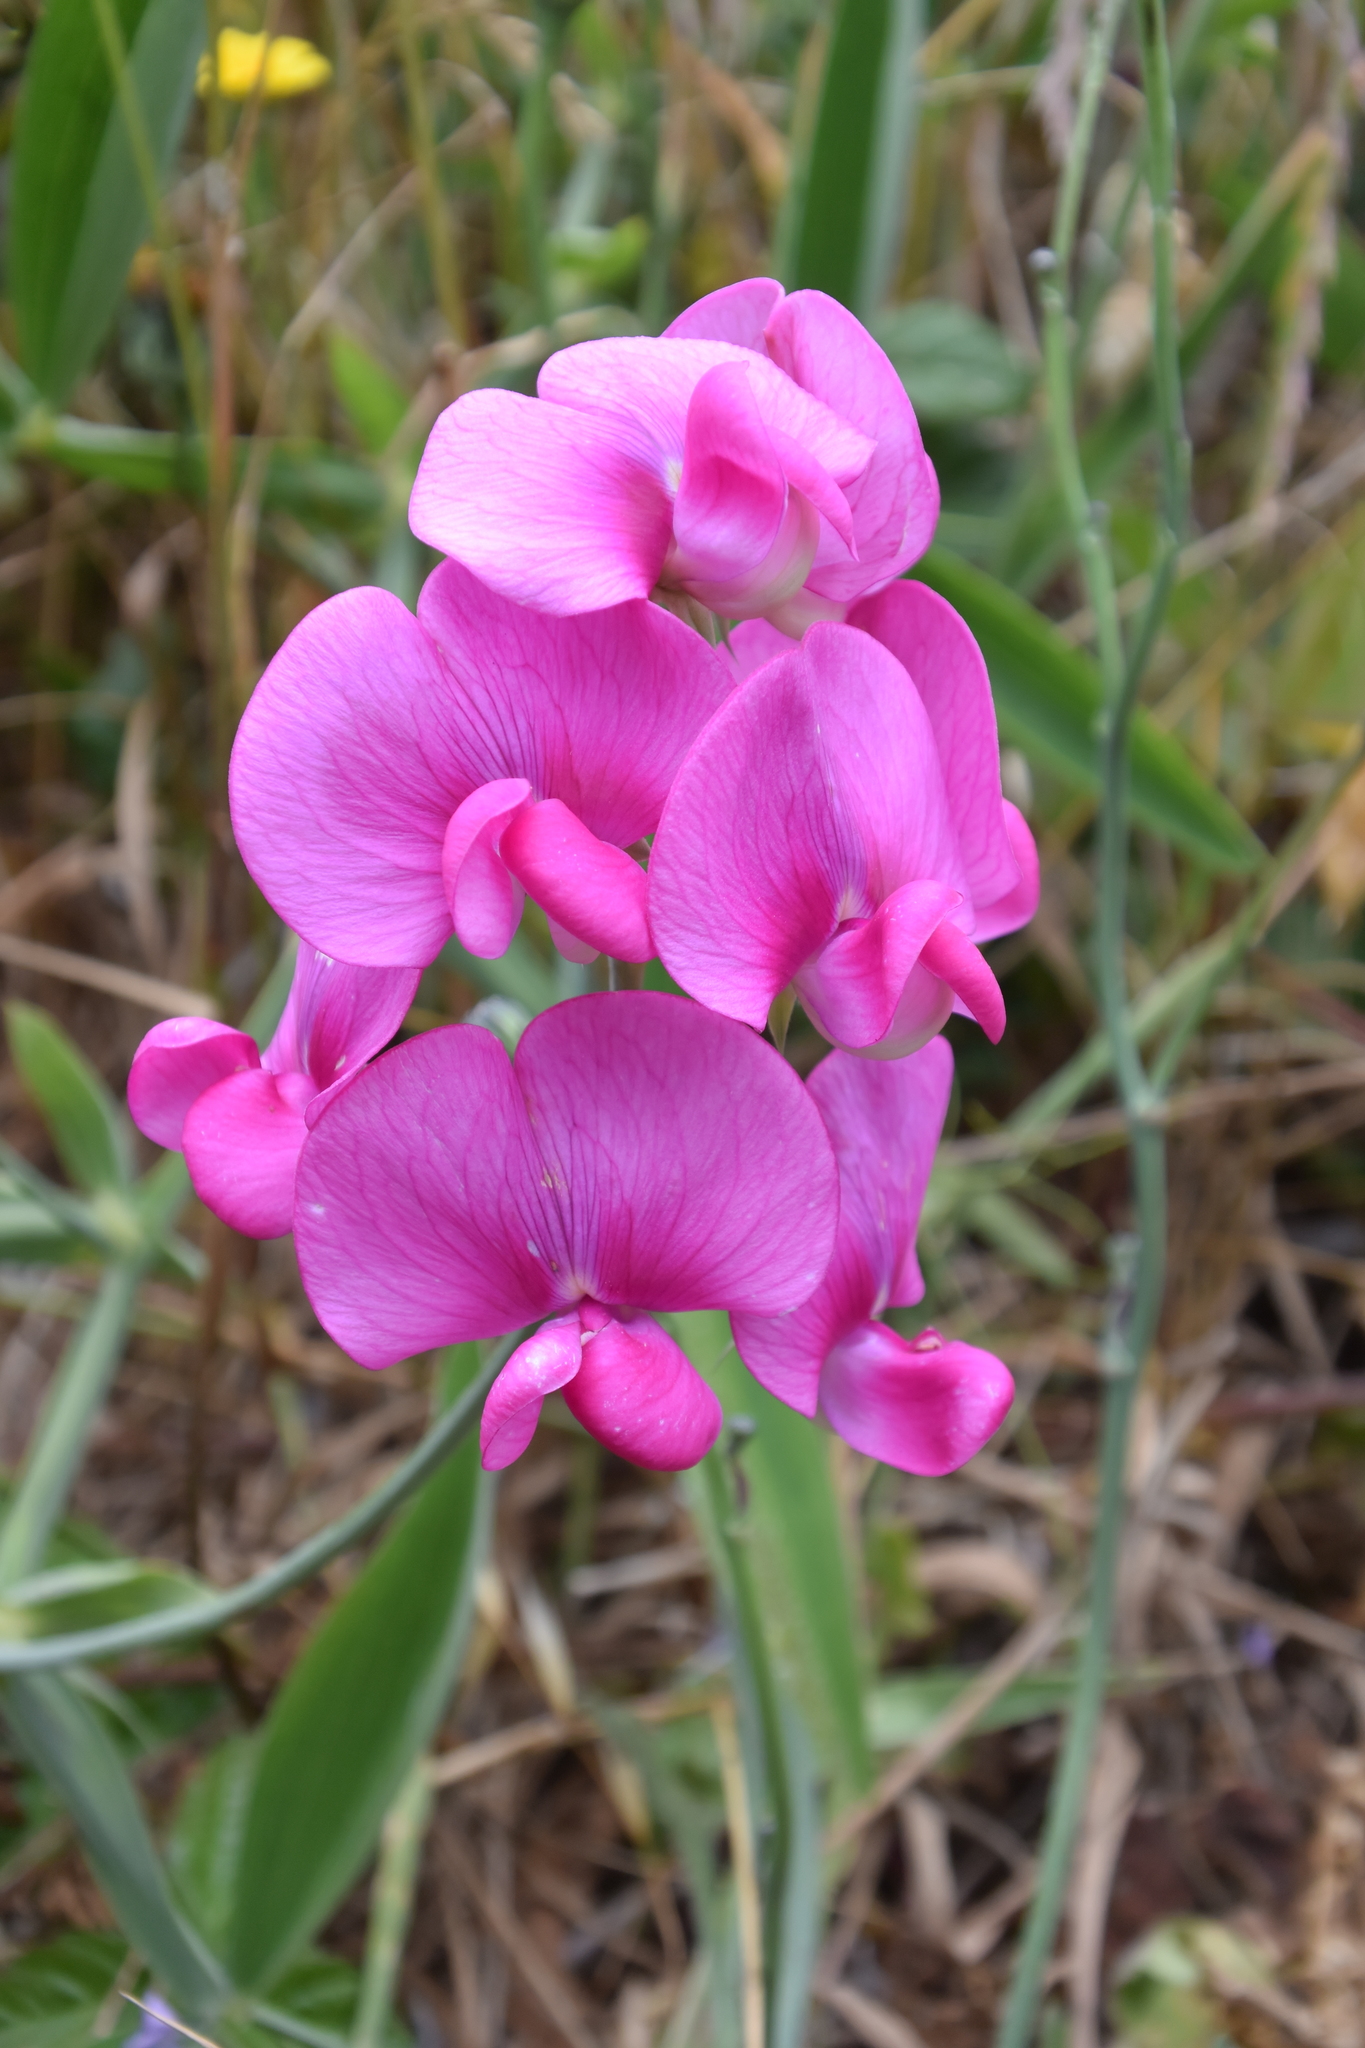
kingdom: Plantae
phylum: Tracheophyta
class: Magnoliopsida
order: Fabales
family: Fabaceae
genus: Lathyrus
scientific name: Lathyrus latifolius
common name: Perennial pea
